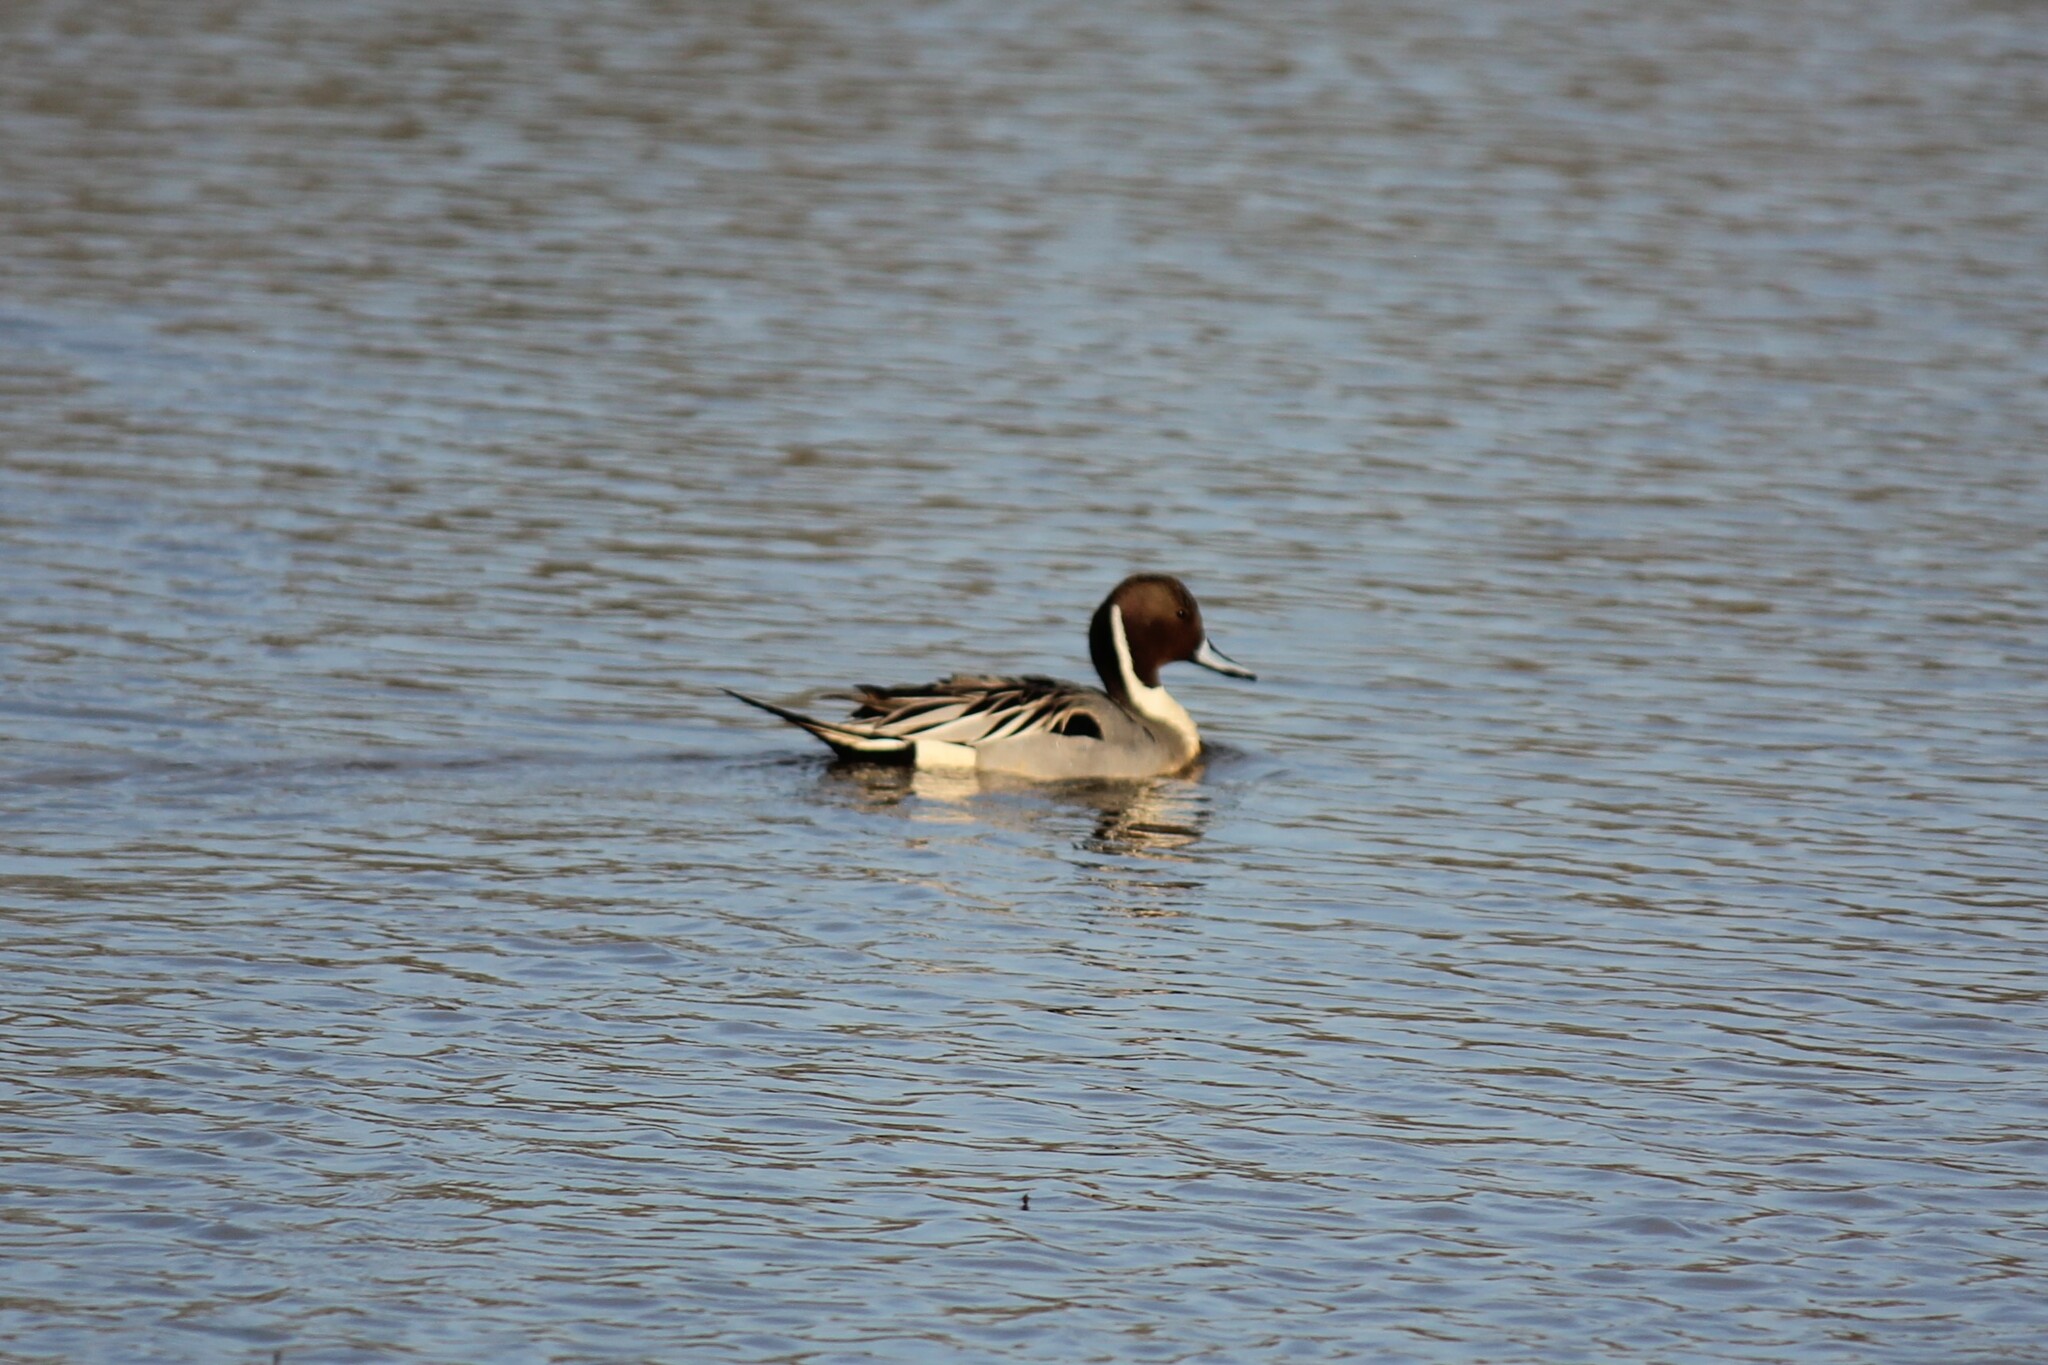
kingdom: Animalia
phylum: Chordata
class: Aves
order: Anseriformes
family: Anatidae
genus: Anas
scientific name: Anas acuta
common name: Northern pintail
